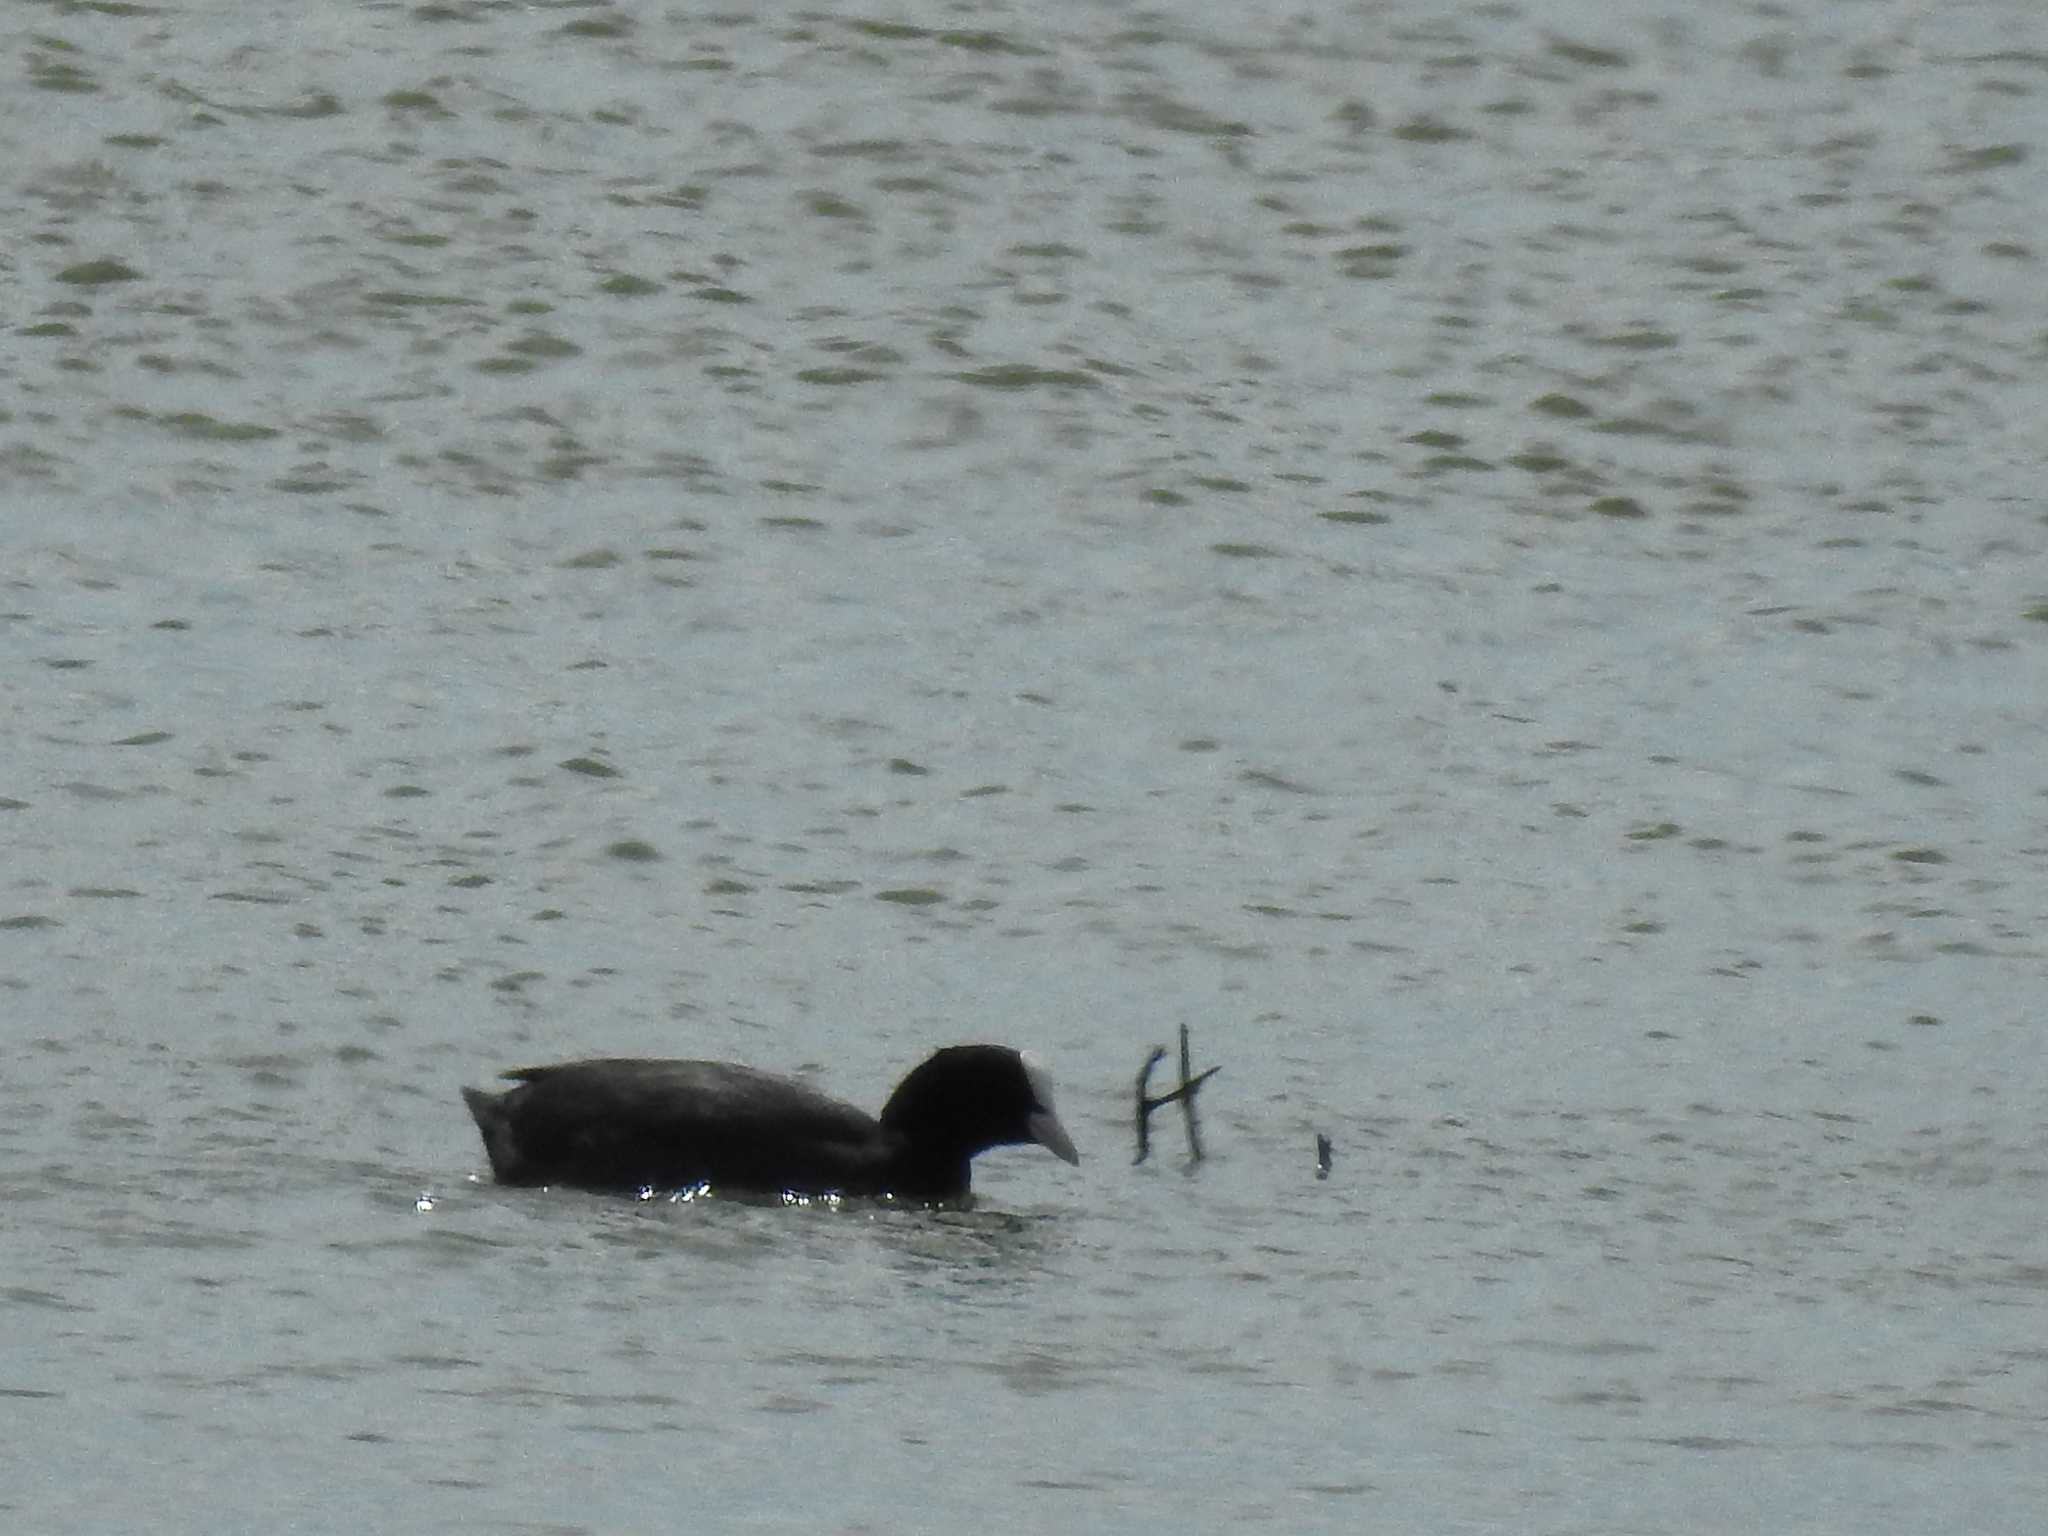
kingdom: Animalia
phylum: Chordata
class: Aves
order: Gruiformes
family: Rallidae
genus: Fulica
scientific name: Fulica atra
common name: Eurasian coot
